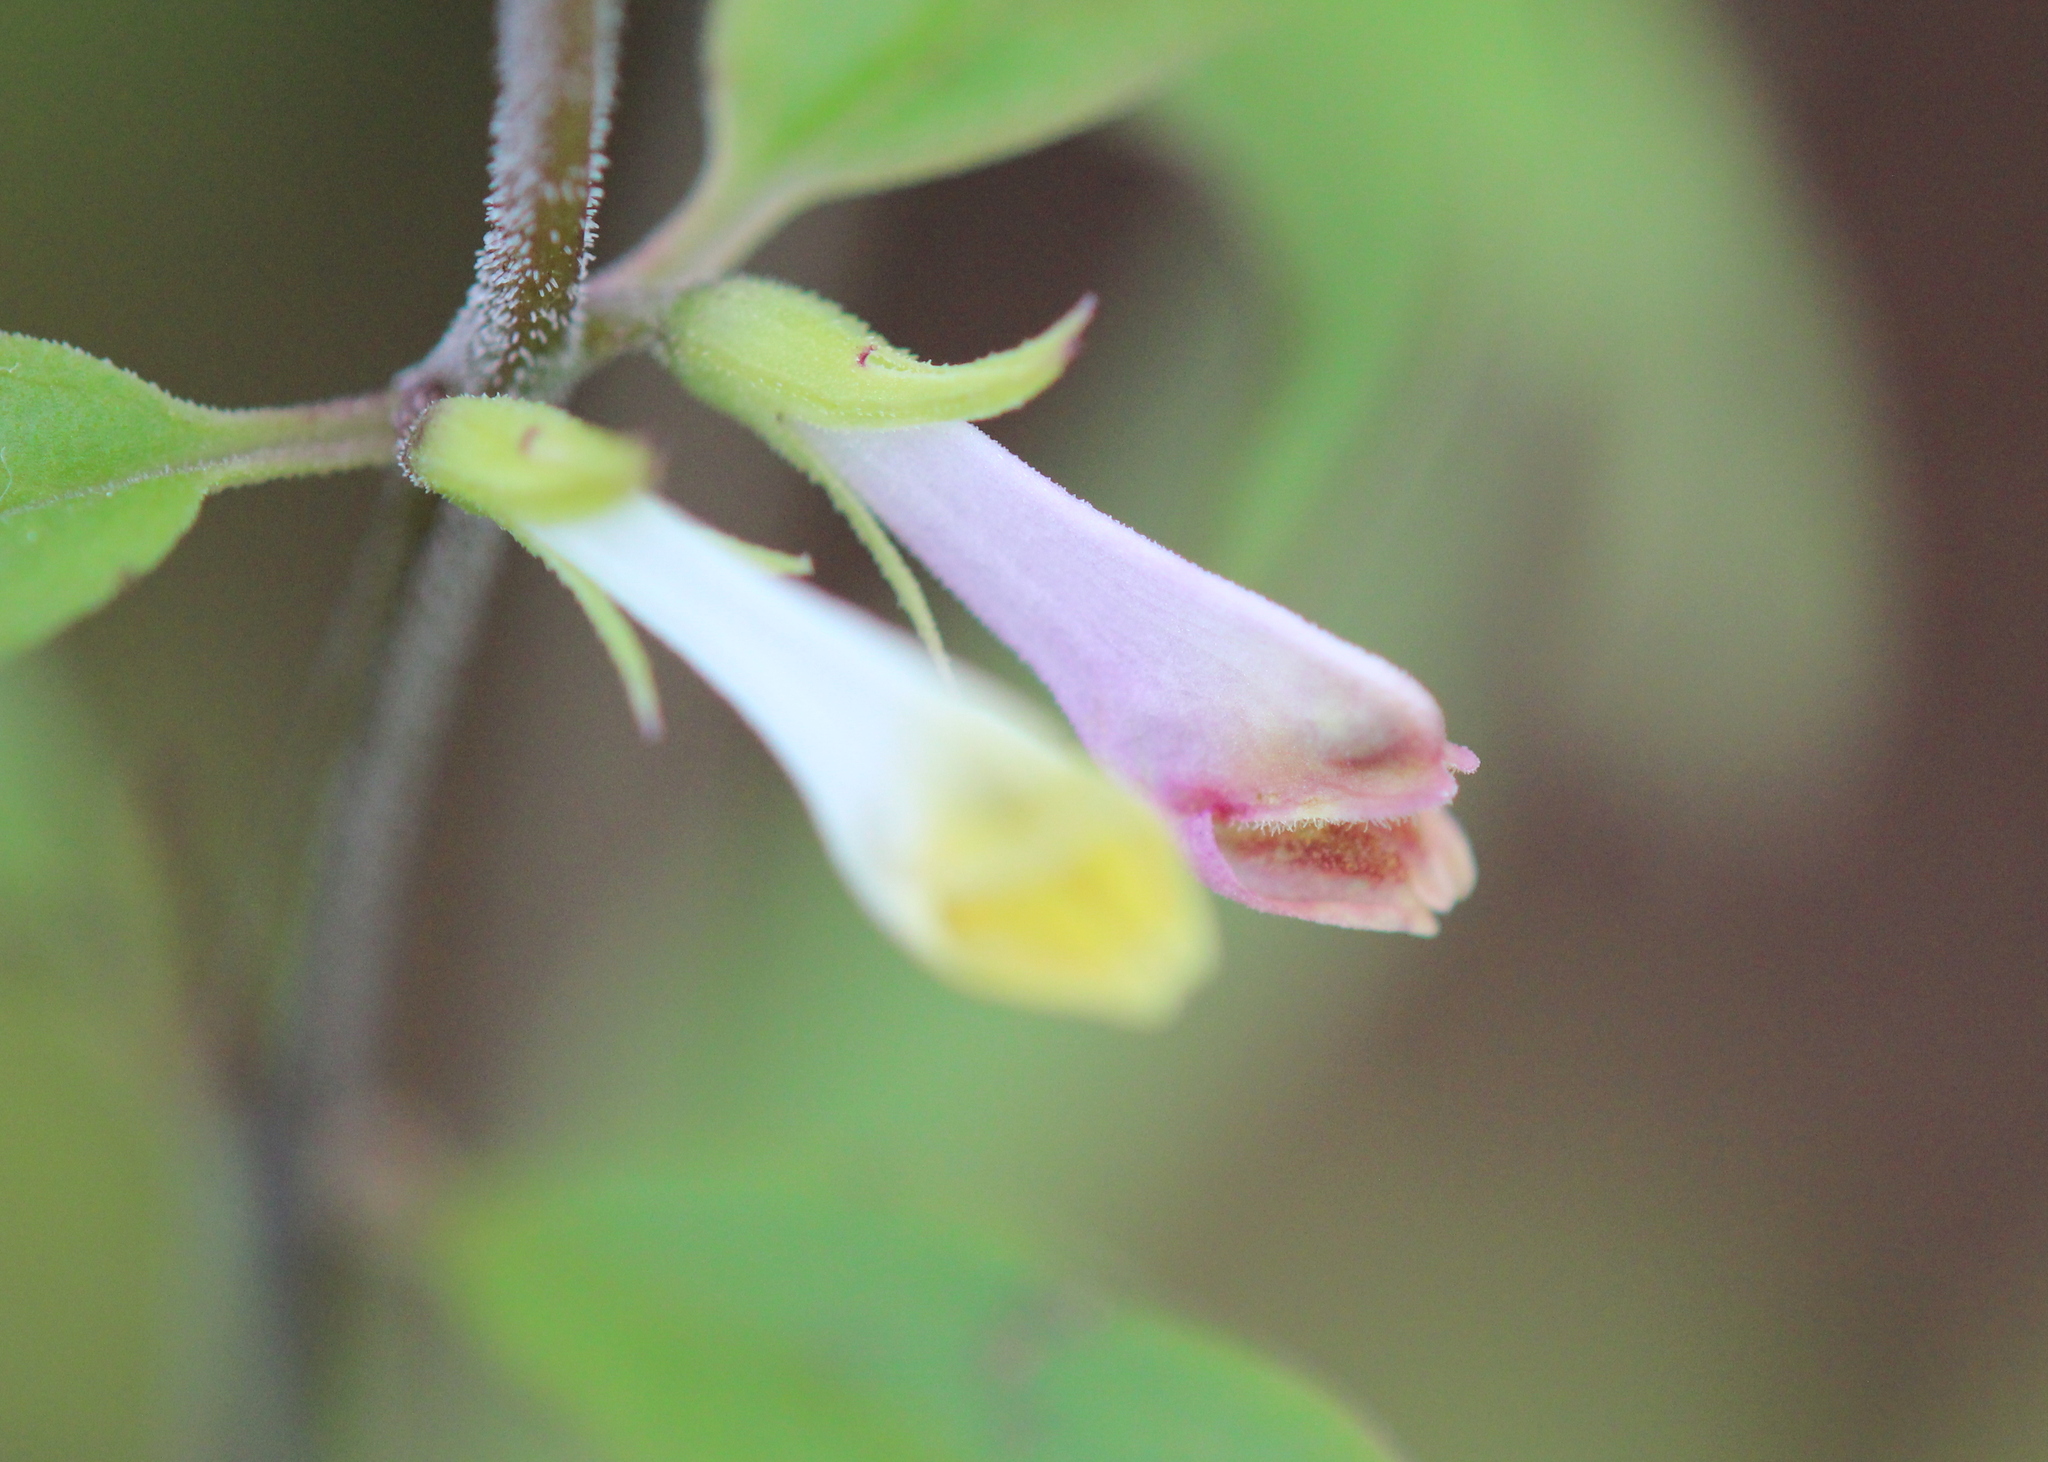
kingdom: Plantae
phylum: Tracheophyta
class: Magnoliopsida
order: Lamiales
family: Orobanchaceae
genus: Melampyrum
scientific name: Melampyrum lineare
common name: American cow-wheat
